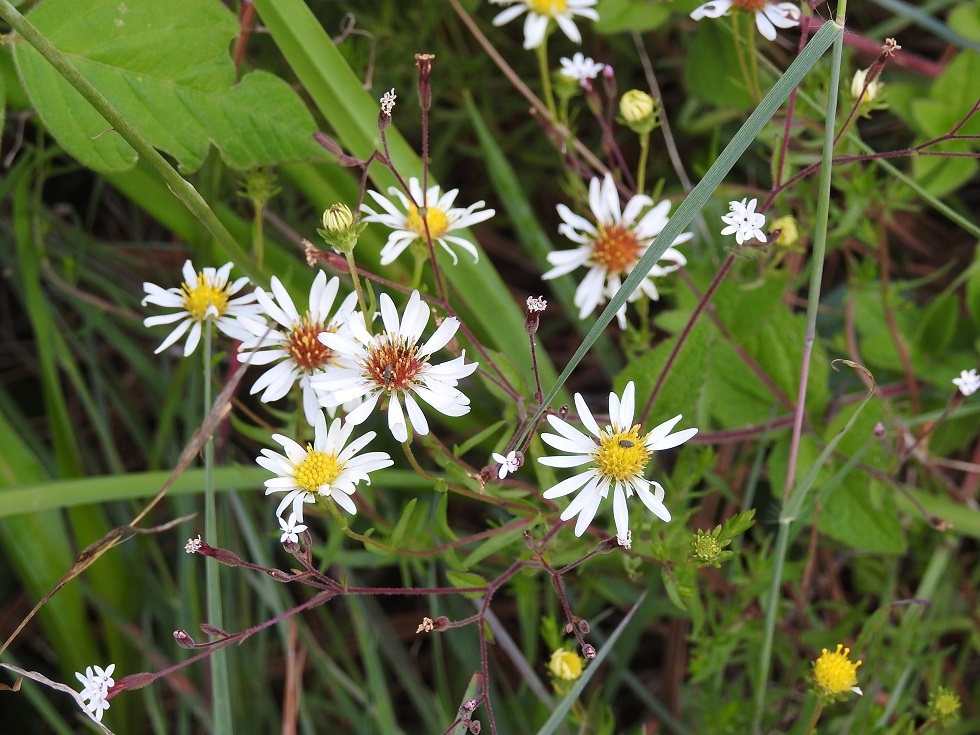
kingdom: Plantae
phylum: Tracheophyta
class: Magnoliopsida
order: Asterales
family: Asteraceae
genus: Symphyotrichum
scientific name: Symphyotrichum bullatum
